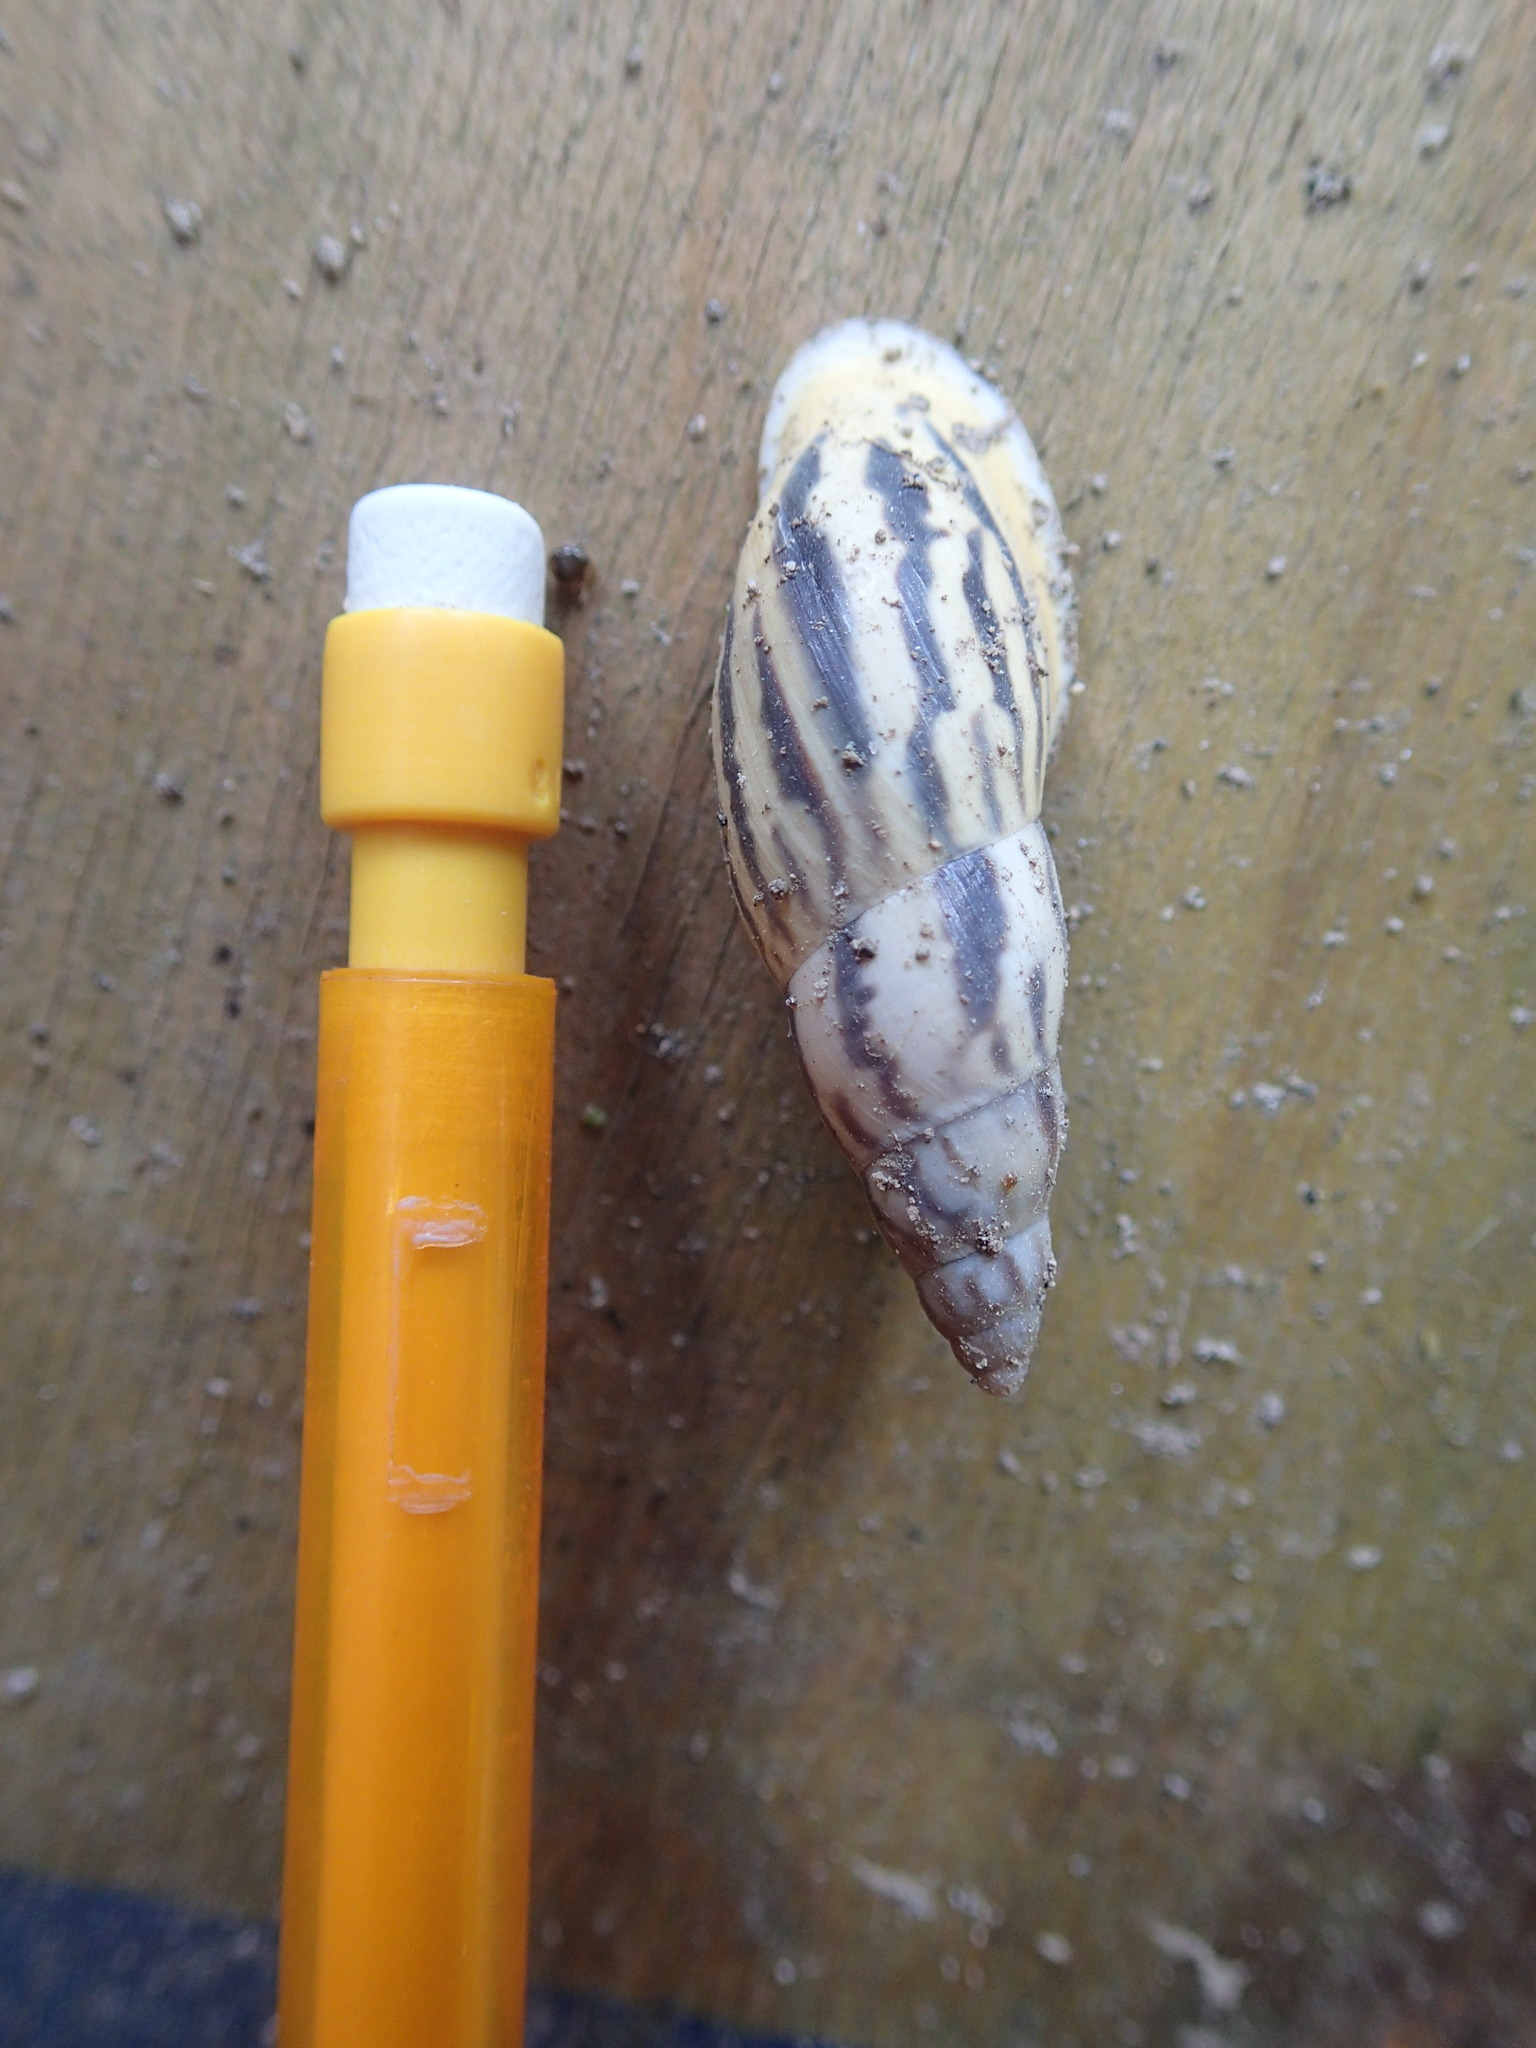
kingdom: Animalia
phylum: Mollusca
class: Gastropoda
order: Stylommatophora
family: Bulimulidae
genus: Drymaeus
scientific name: Drymaeus petasites
